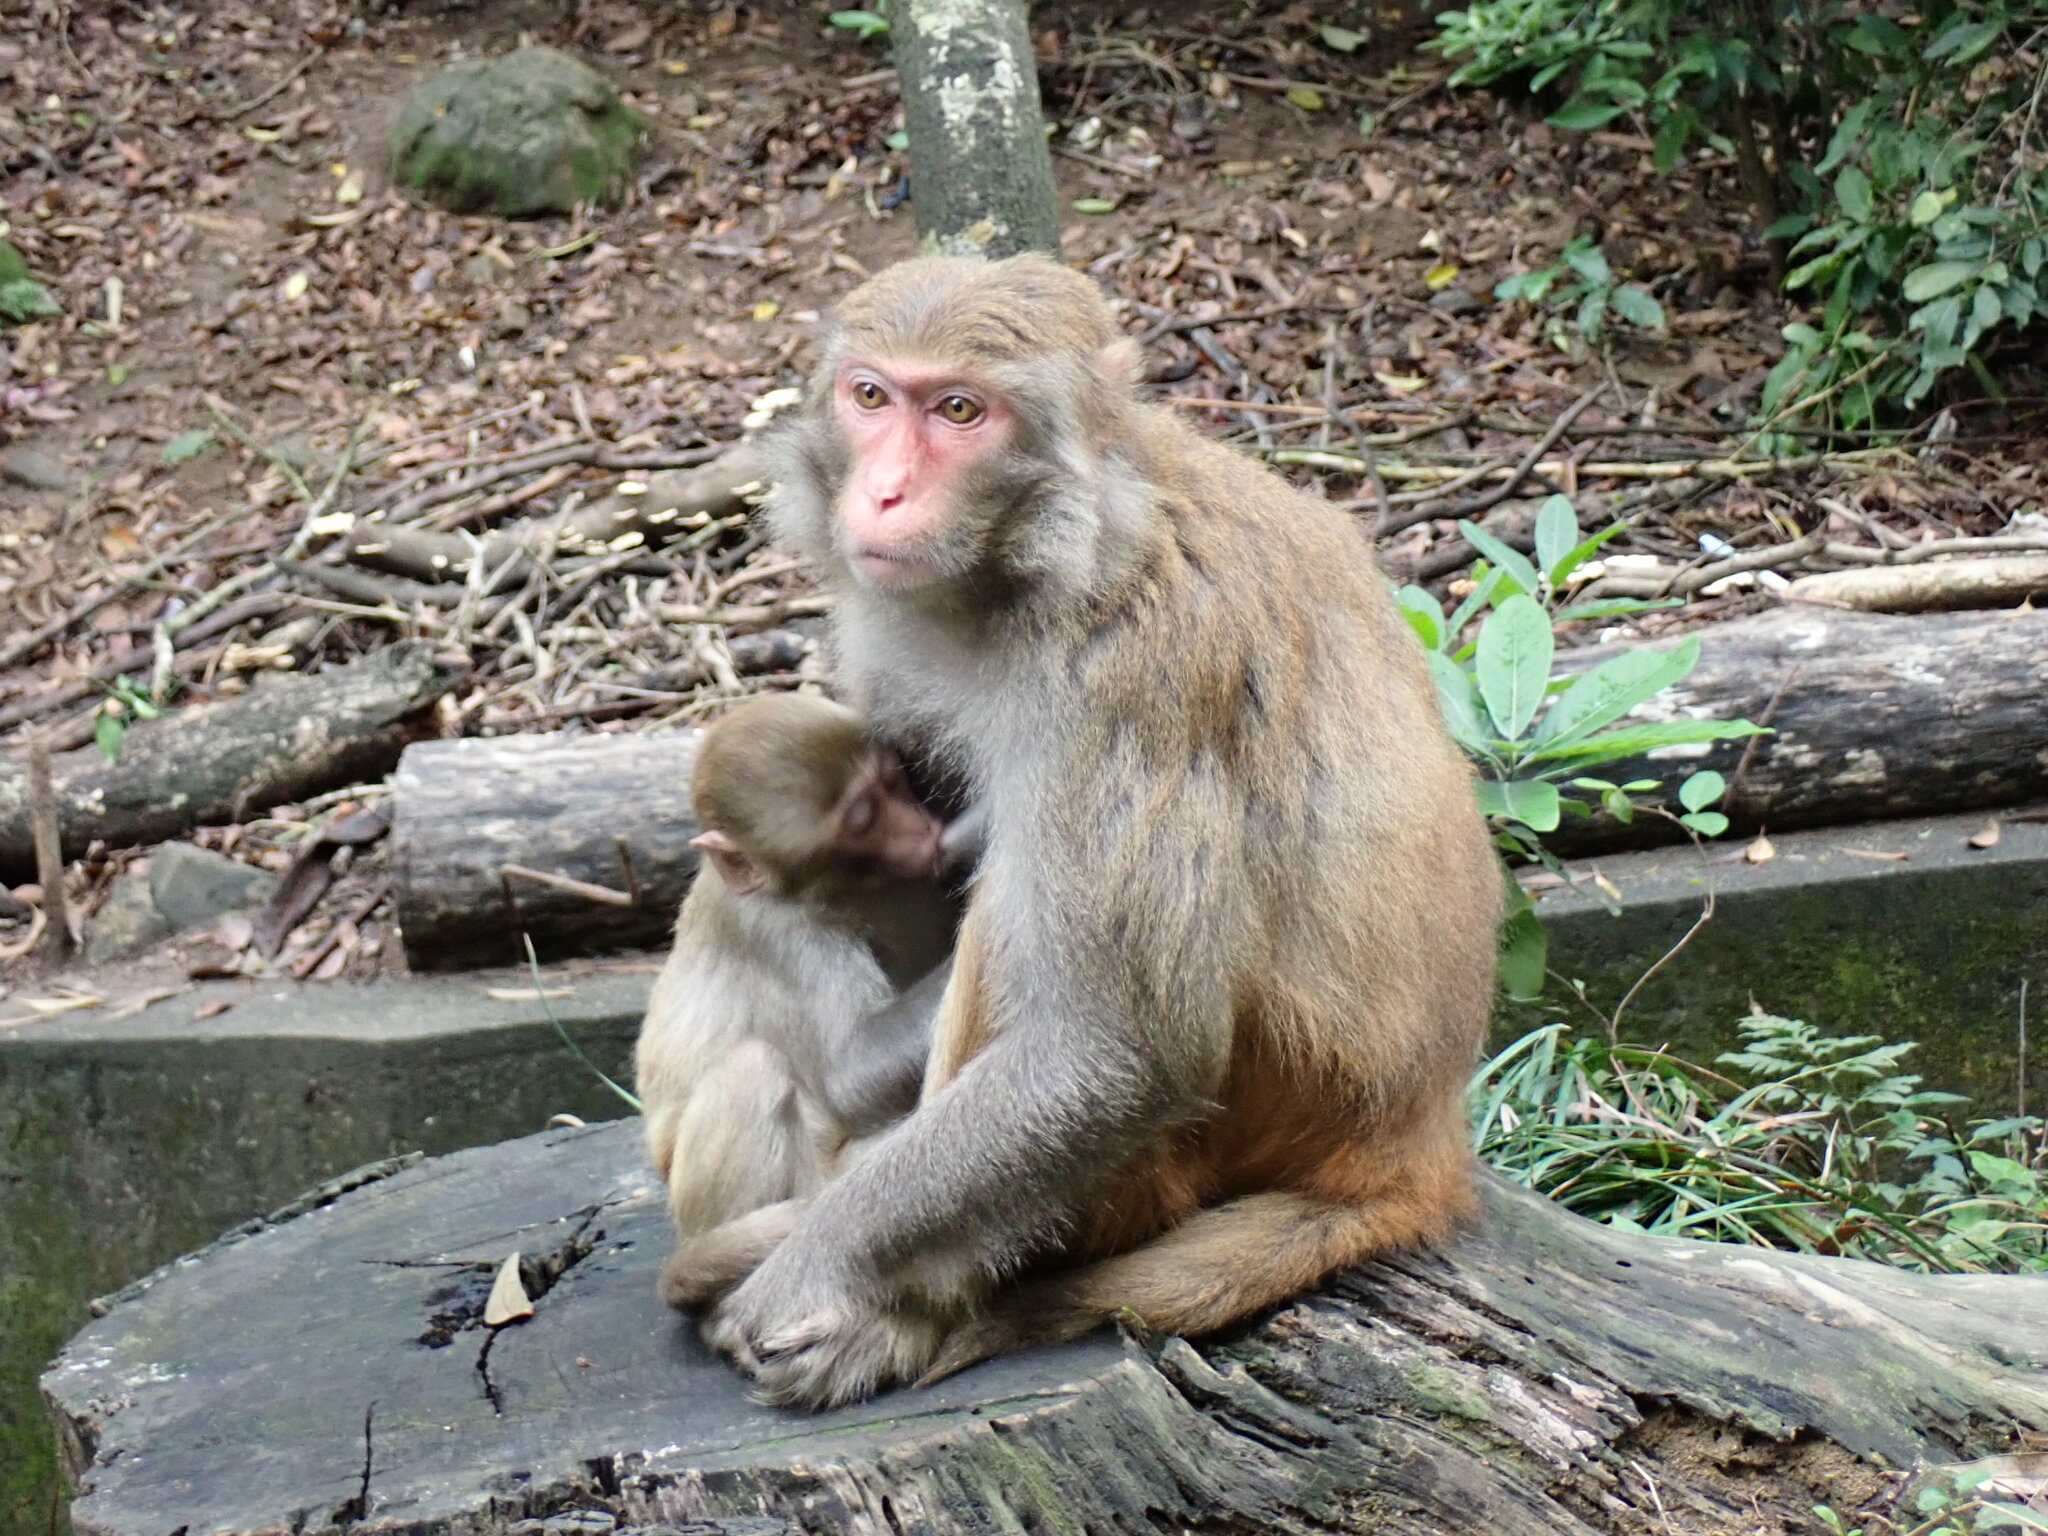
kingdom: Animalia
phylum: Chordata
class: Mammalia
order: Primates
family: Cercopithecidae
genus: Macaca
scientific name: Macaca mulatta
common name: Rhesus monkey
